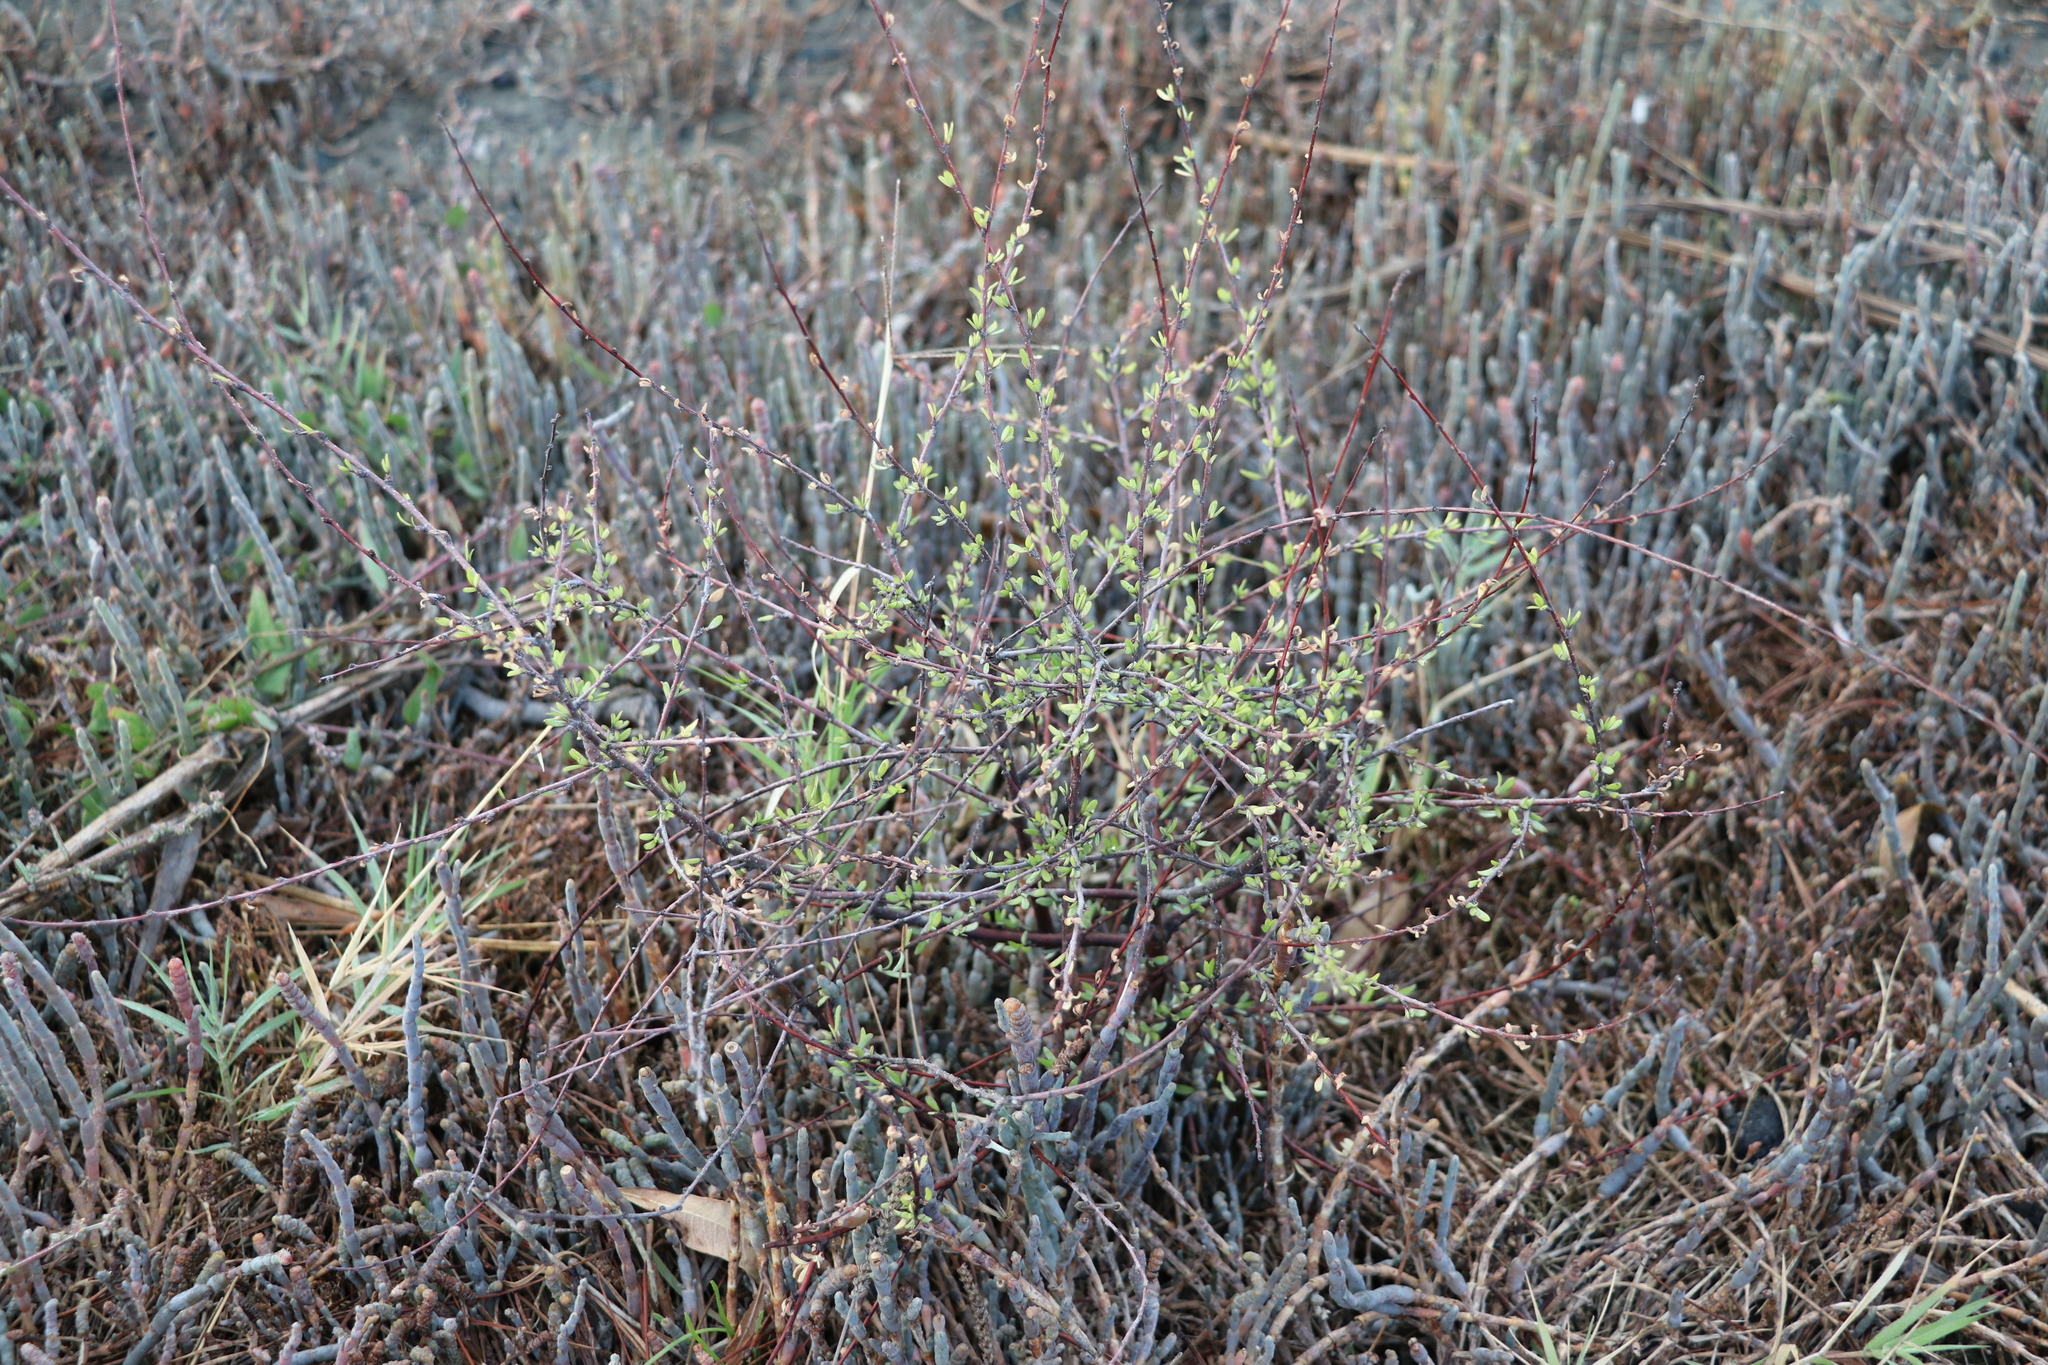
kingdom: Plantae
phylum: Tracheophyta
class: Magnoliopsida
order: Malvales
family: Malvaceae
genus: Plagianthus
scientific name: Plagianthus divaricatus
